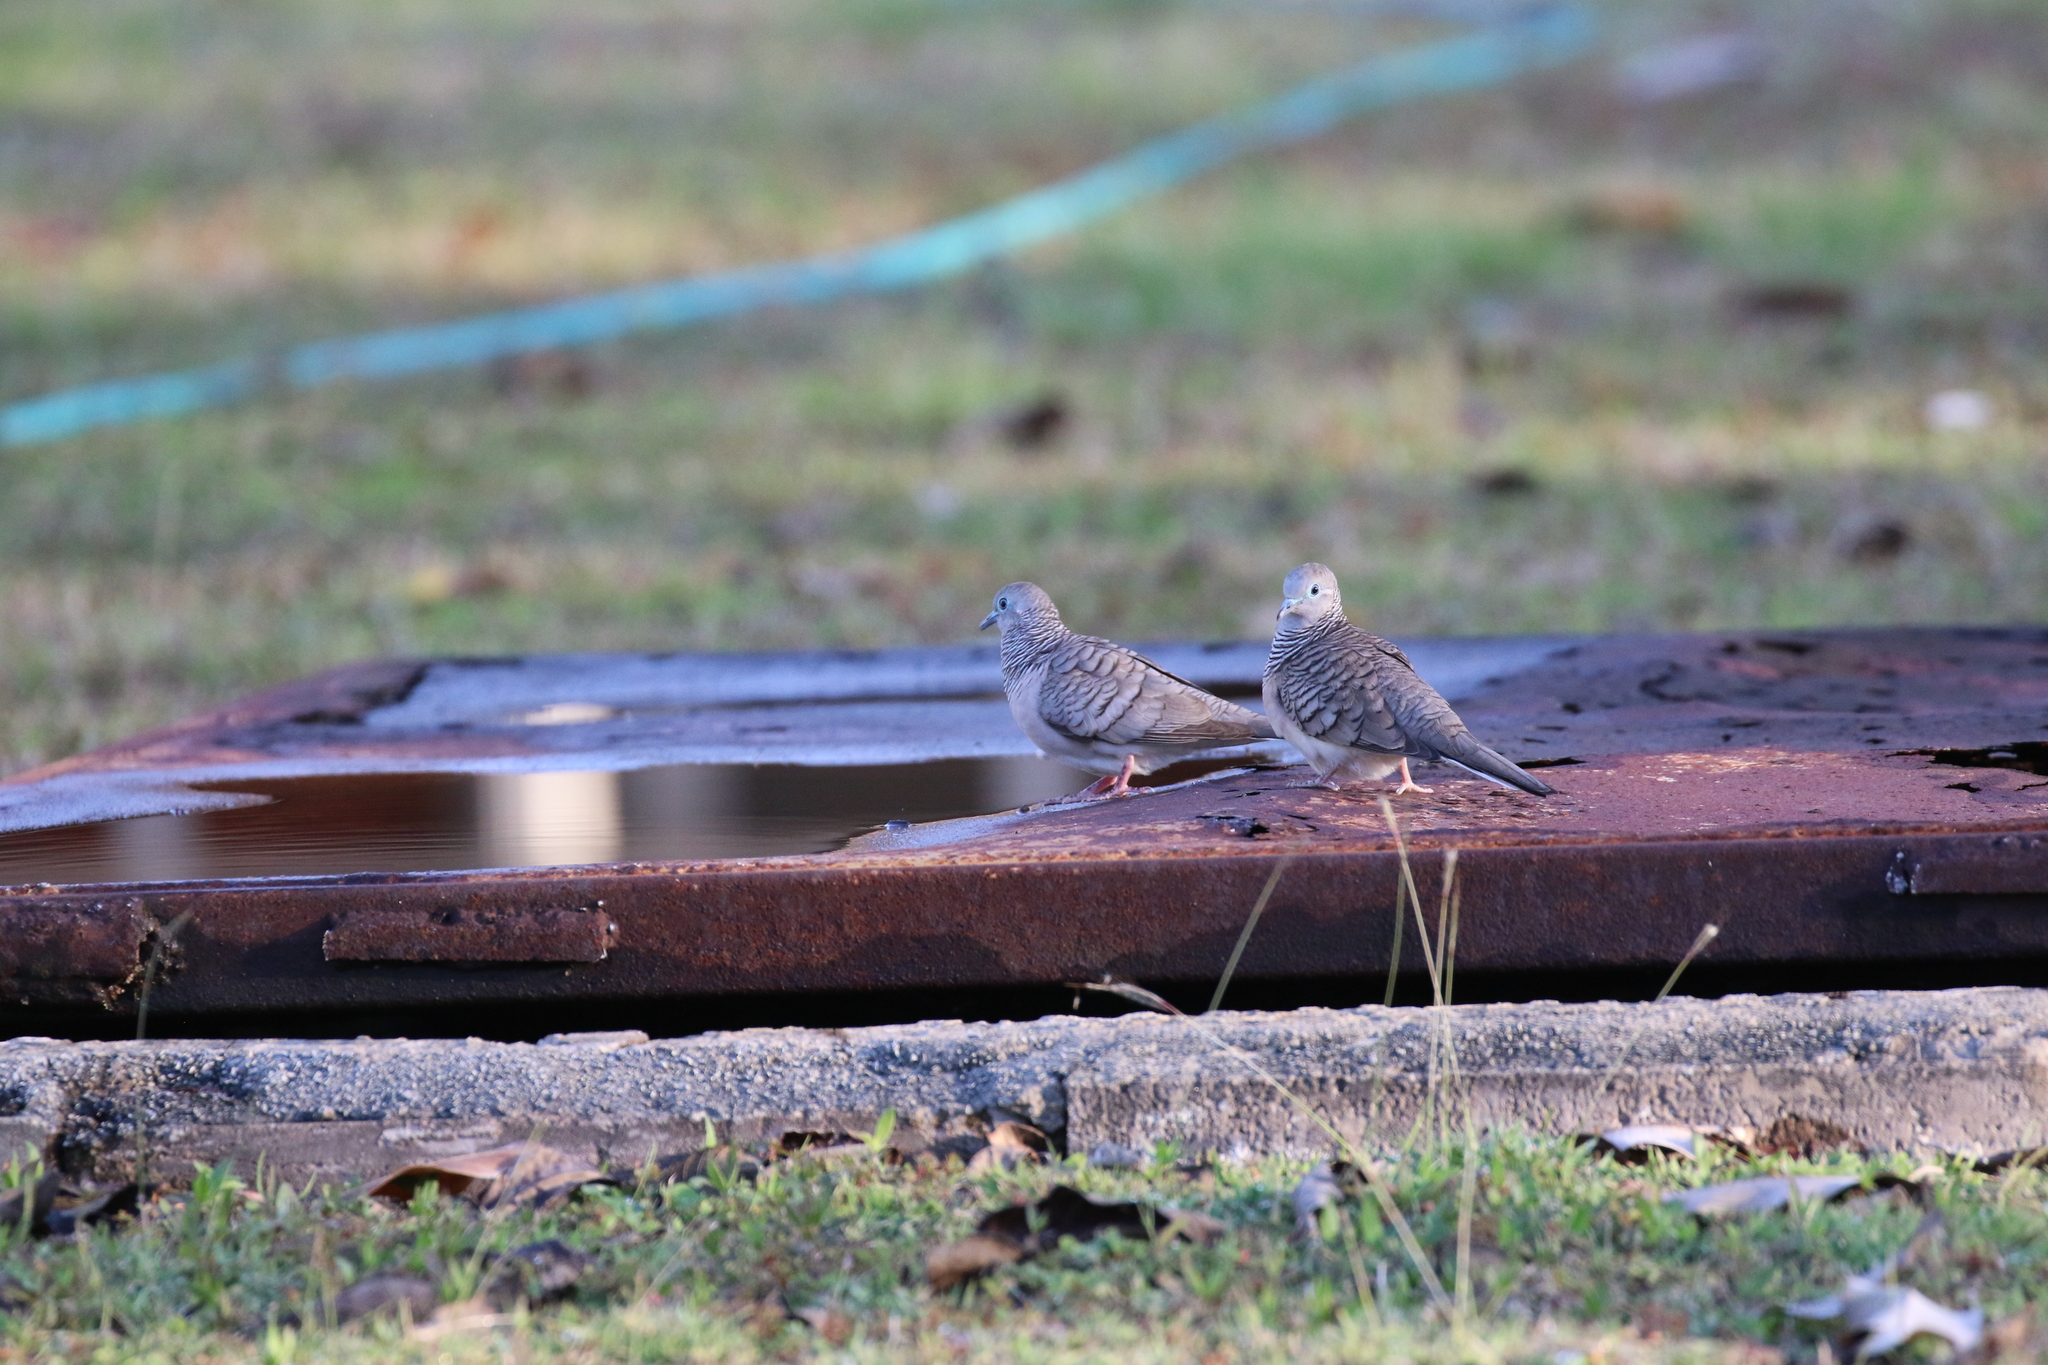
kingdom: Animalia
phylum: Chordata
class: Aves
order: Columbiformes
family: Columbidae
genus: Geopelia
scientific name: Geopelia placida
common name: Peaceful dove
